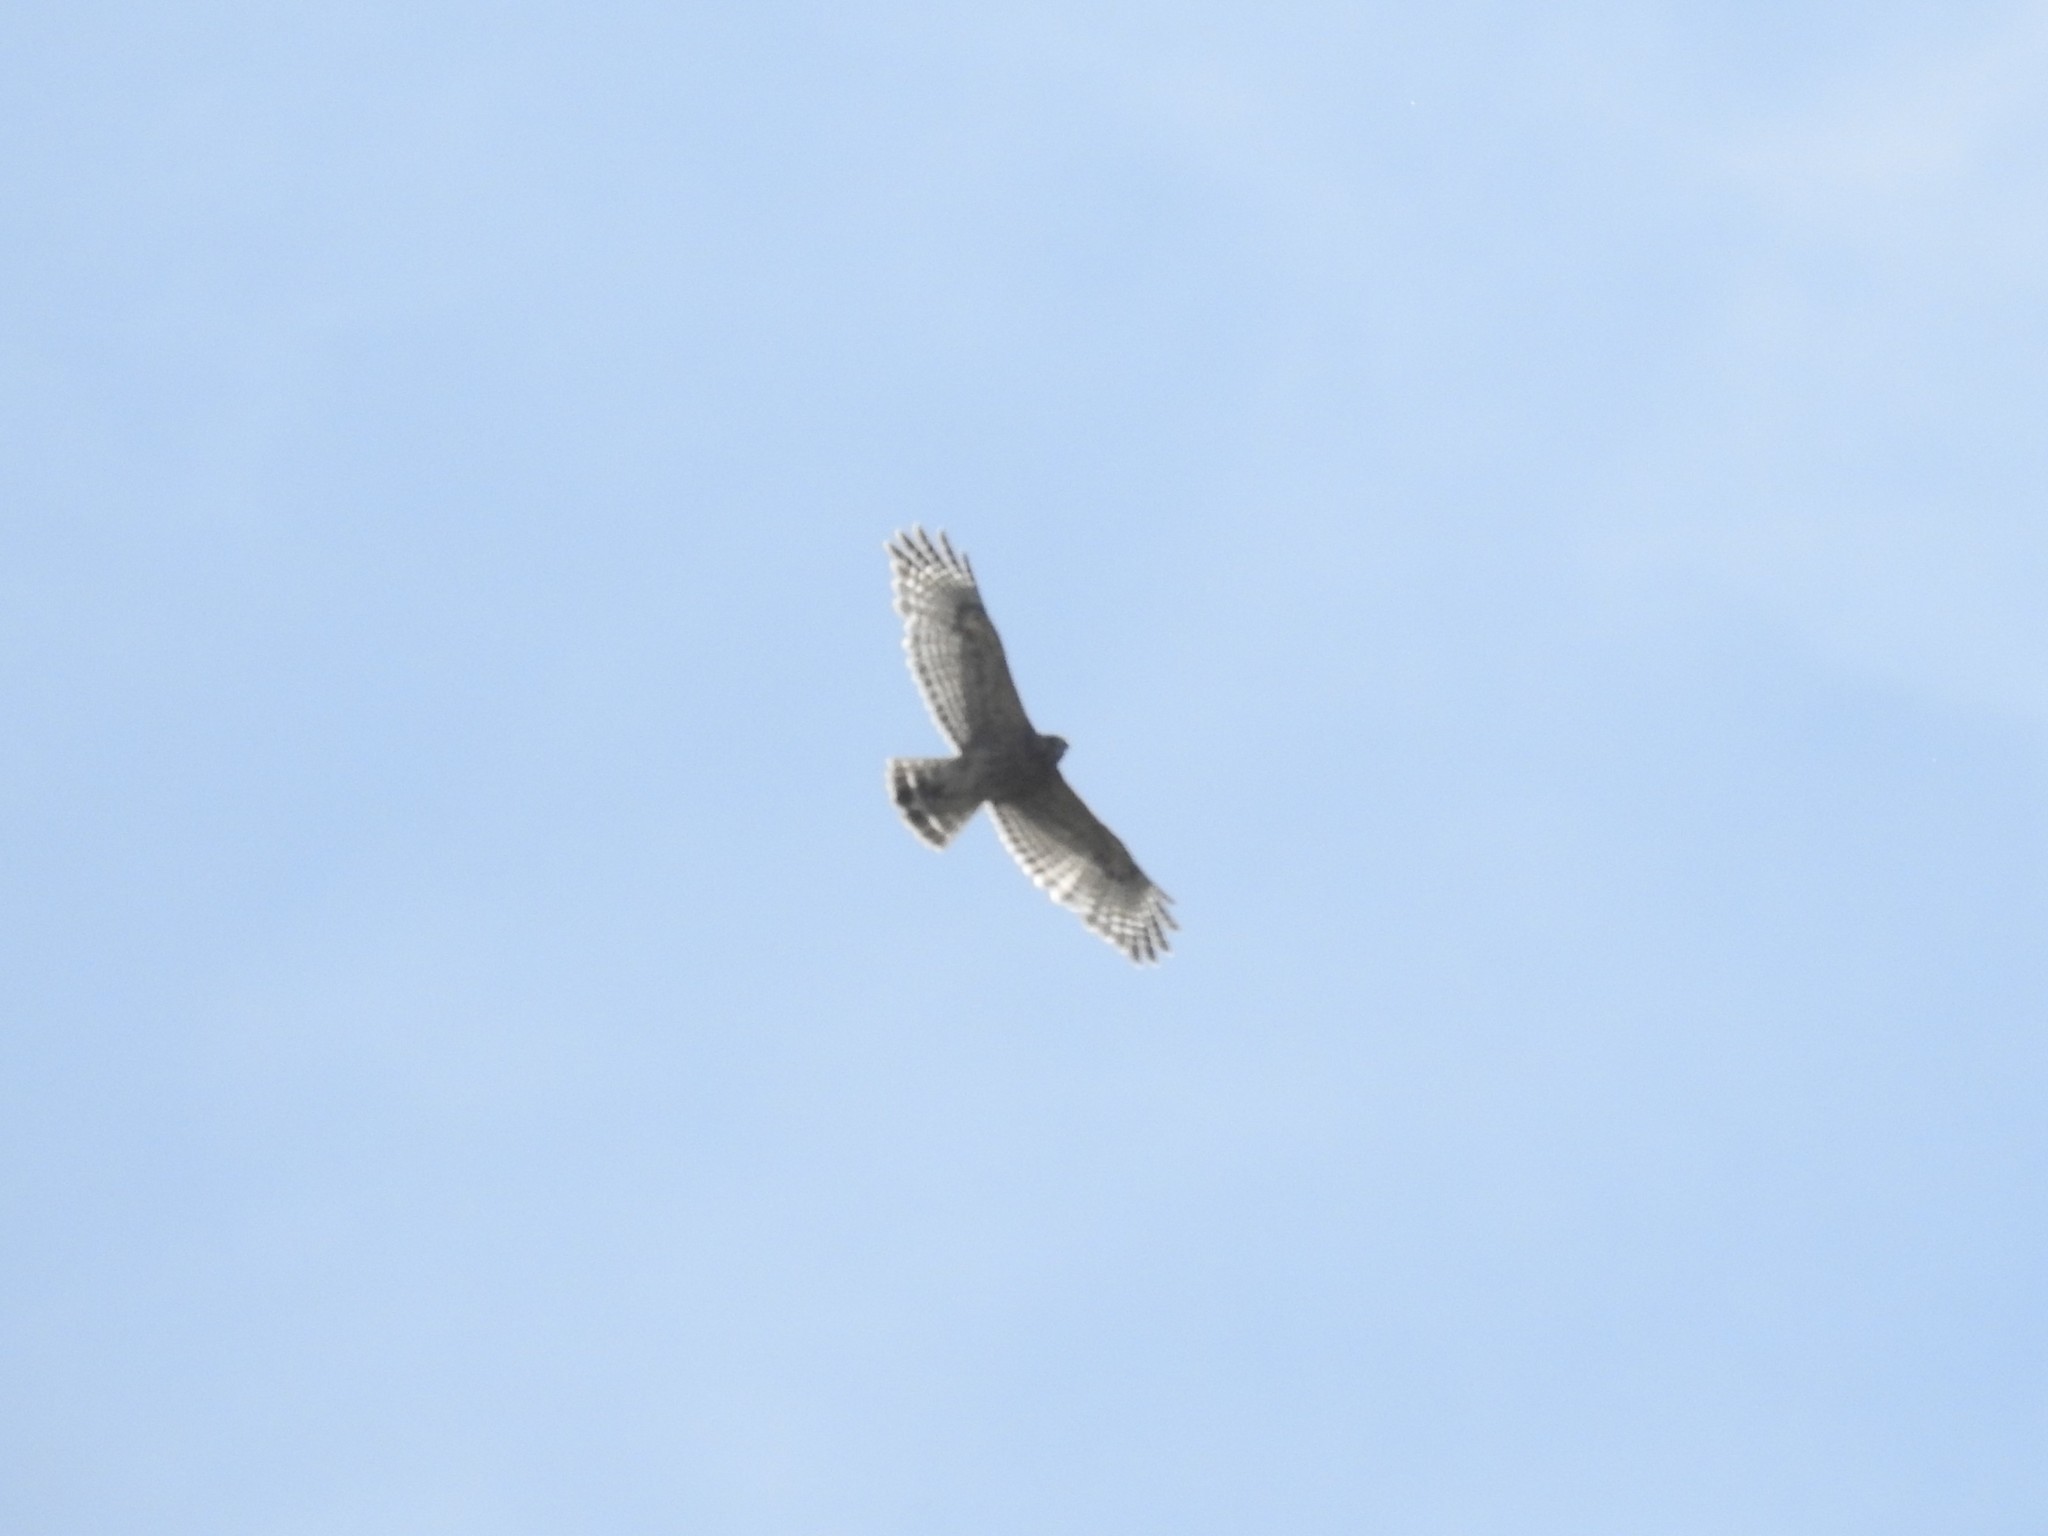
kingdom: Animalia
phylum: Chordata
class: Aves
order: Accipitriformes
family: Accipitridae
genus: Buteo
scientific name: Buteo lineatus
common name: Red-shouldered hawk
